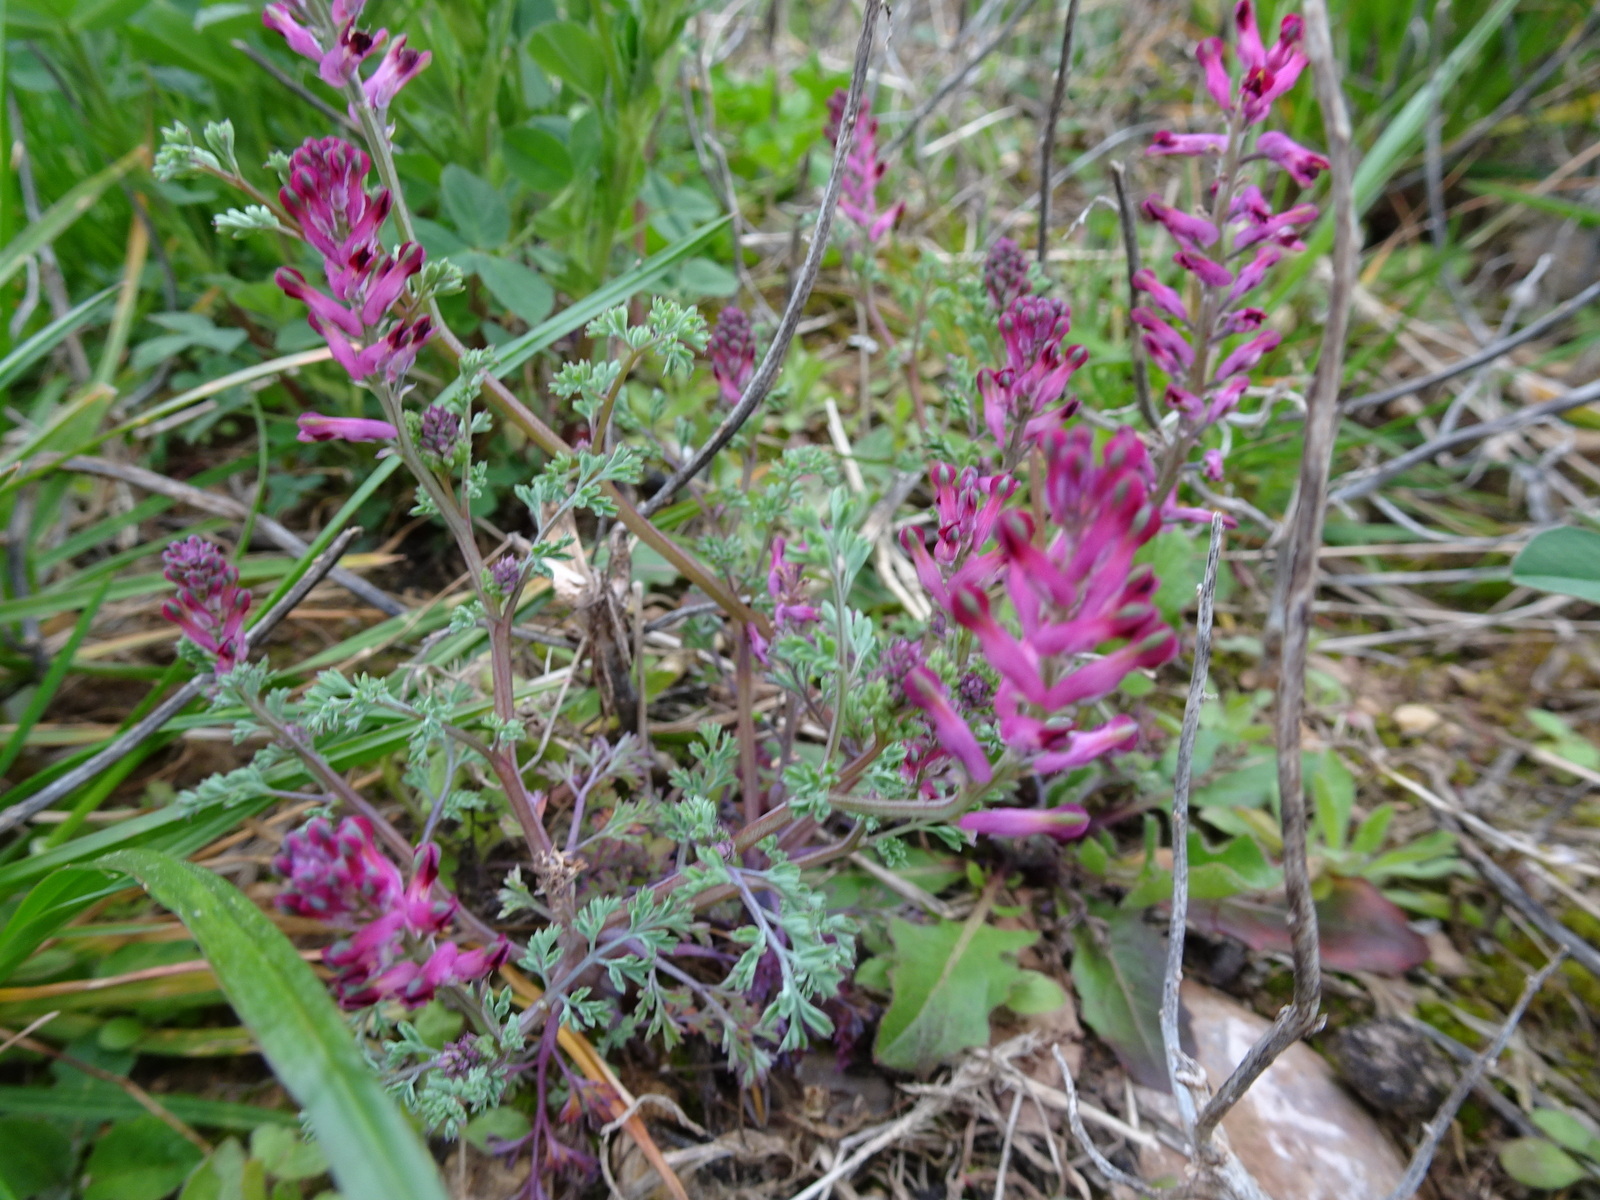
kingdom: Plantae
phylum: Tracheophyta
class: Magnoliopsida
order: Ranunculales
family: Papaveraceae
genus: Fumaria
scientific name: Fumaria officinalis
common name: Common fumitory
